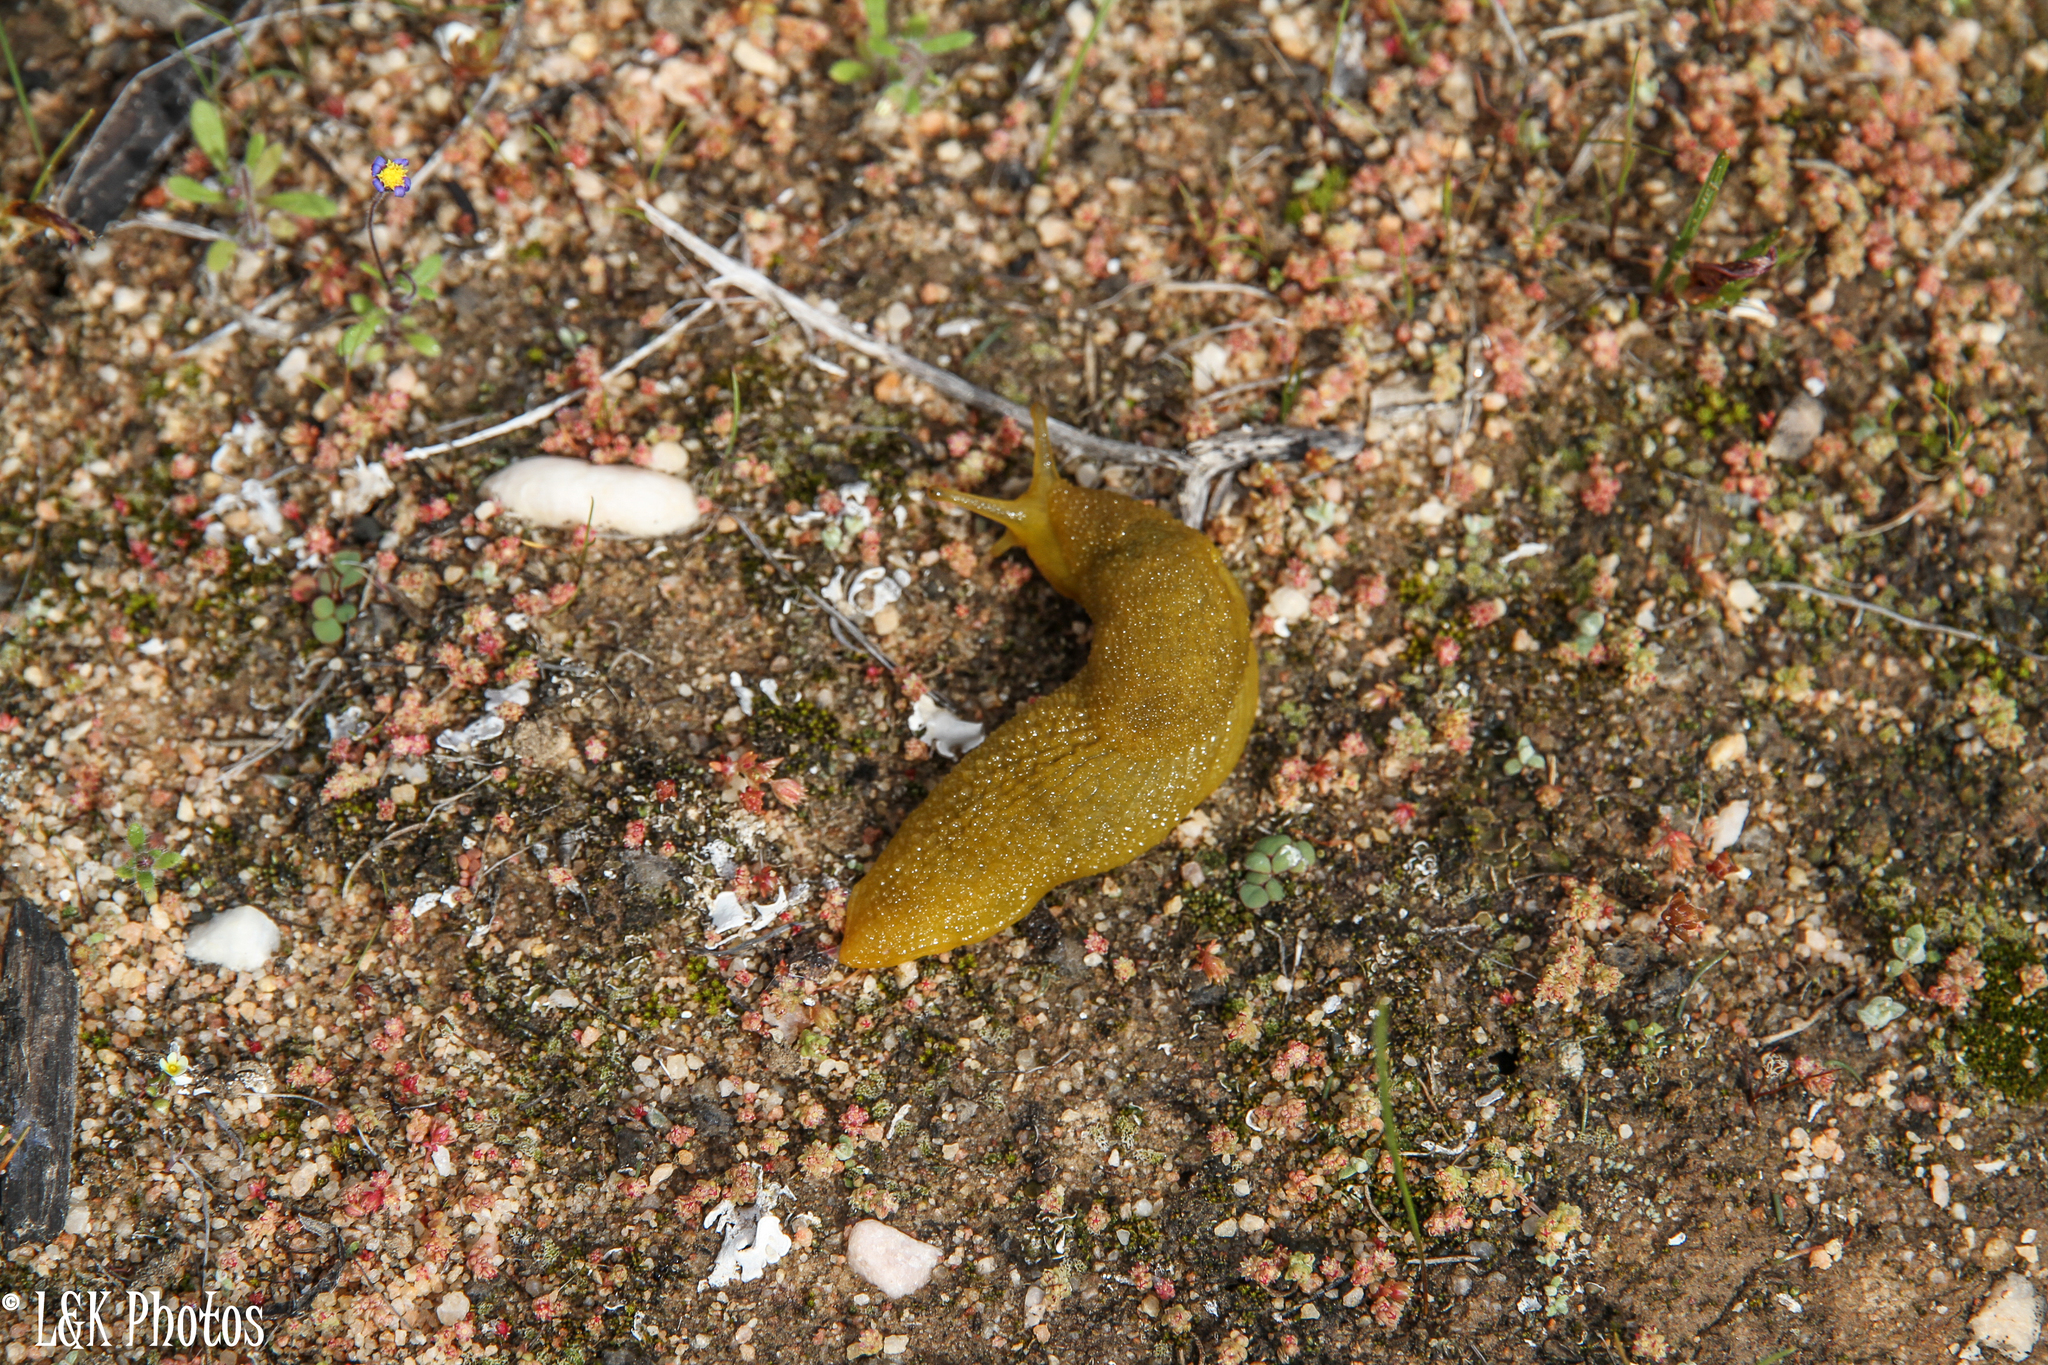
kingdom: Animalia
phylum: Mollusca
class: Gastropoda
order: Stylommatophora
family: Oopeltidae
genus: Oopelta
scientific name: Oopelta granulosa
